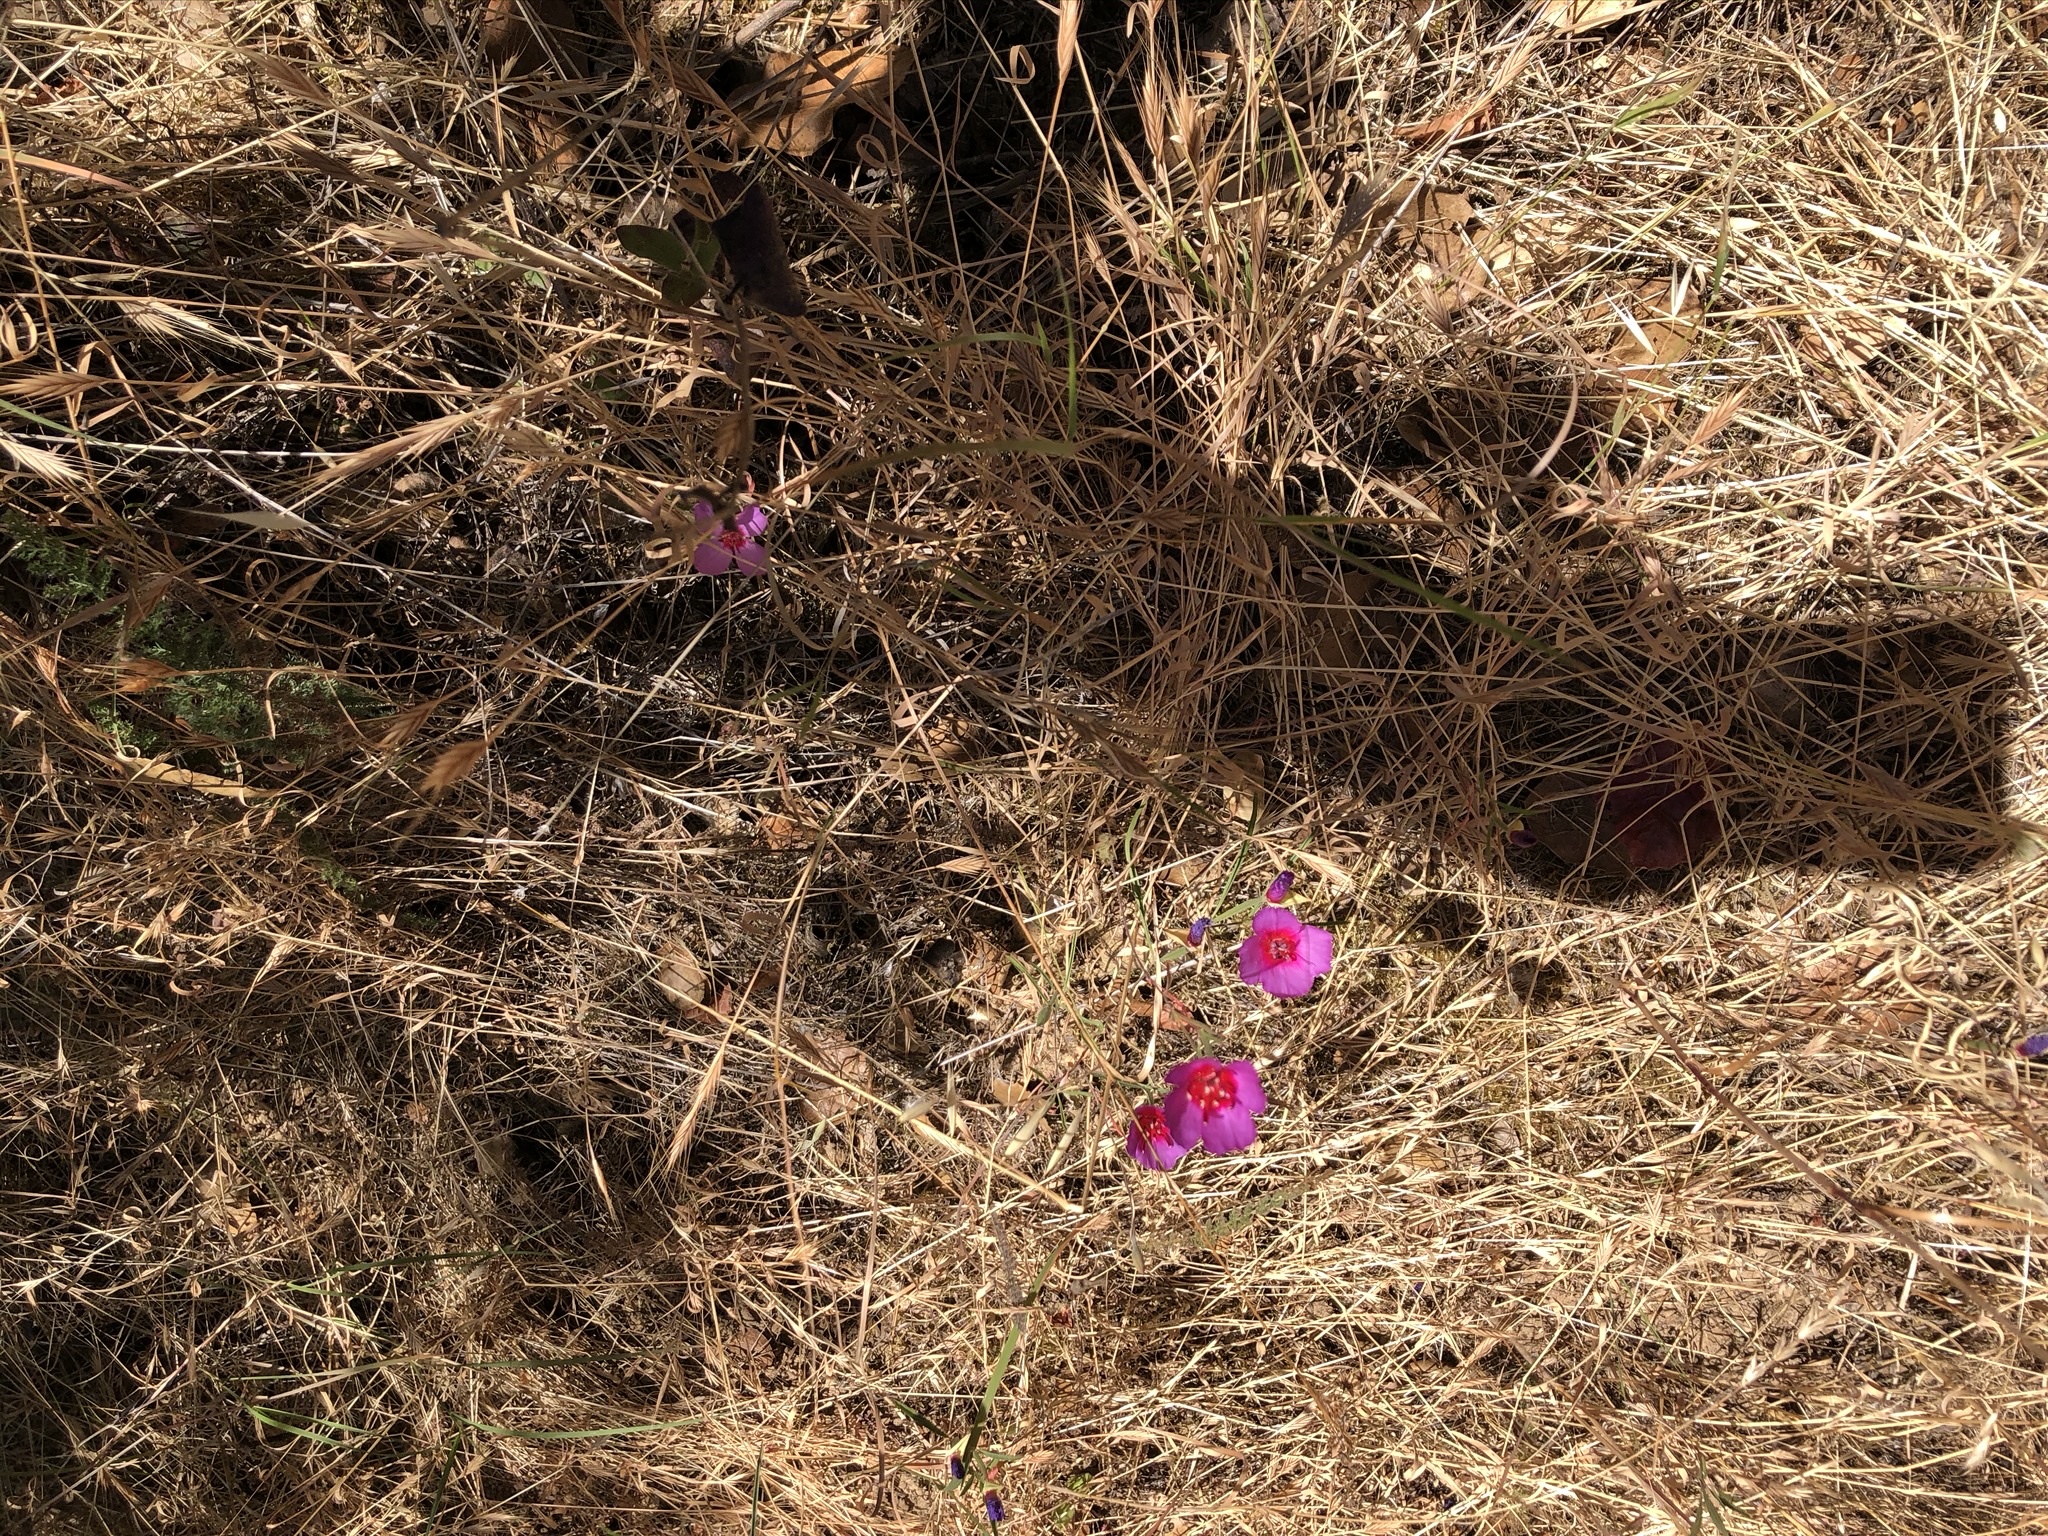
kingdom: Plantae
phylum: Tracheophyta
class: Magnoliopsida
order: Myrtales
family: Onagraceae
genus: Clarkia
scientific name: Clarkia rubicunda
